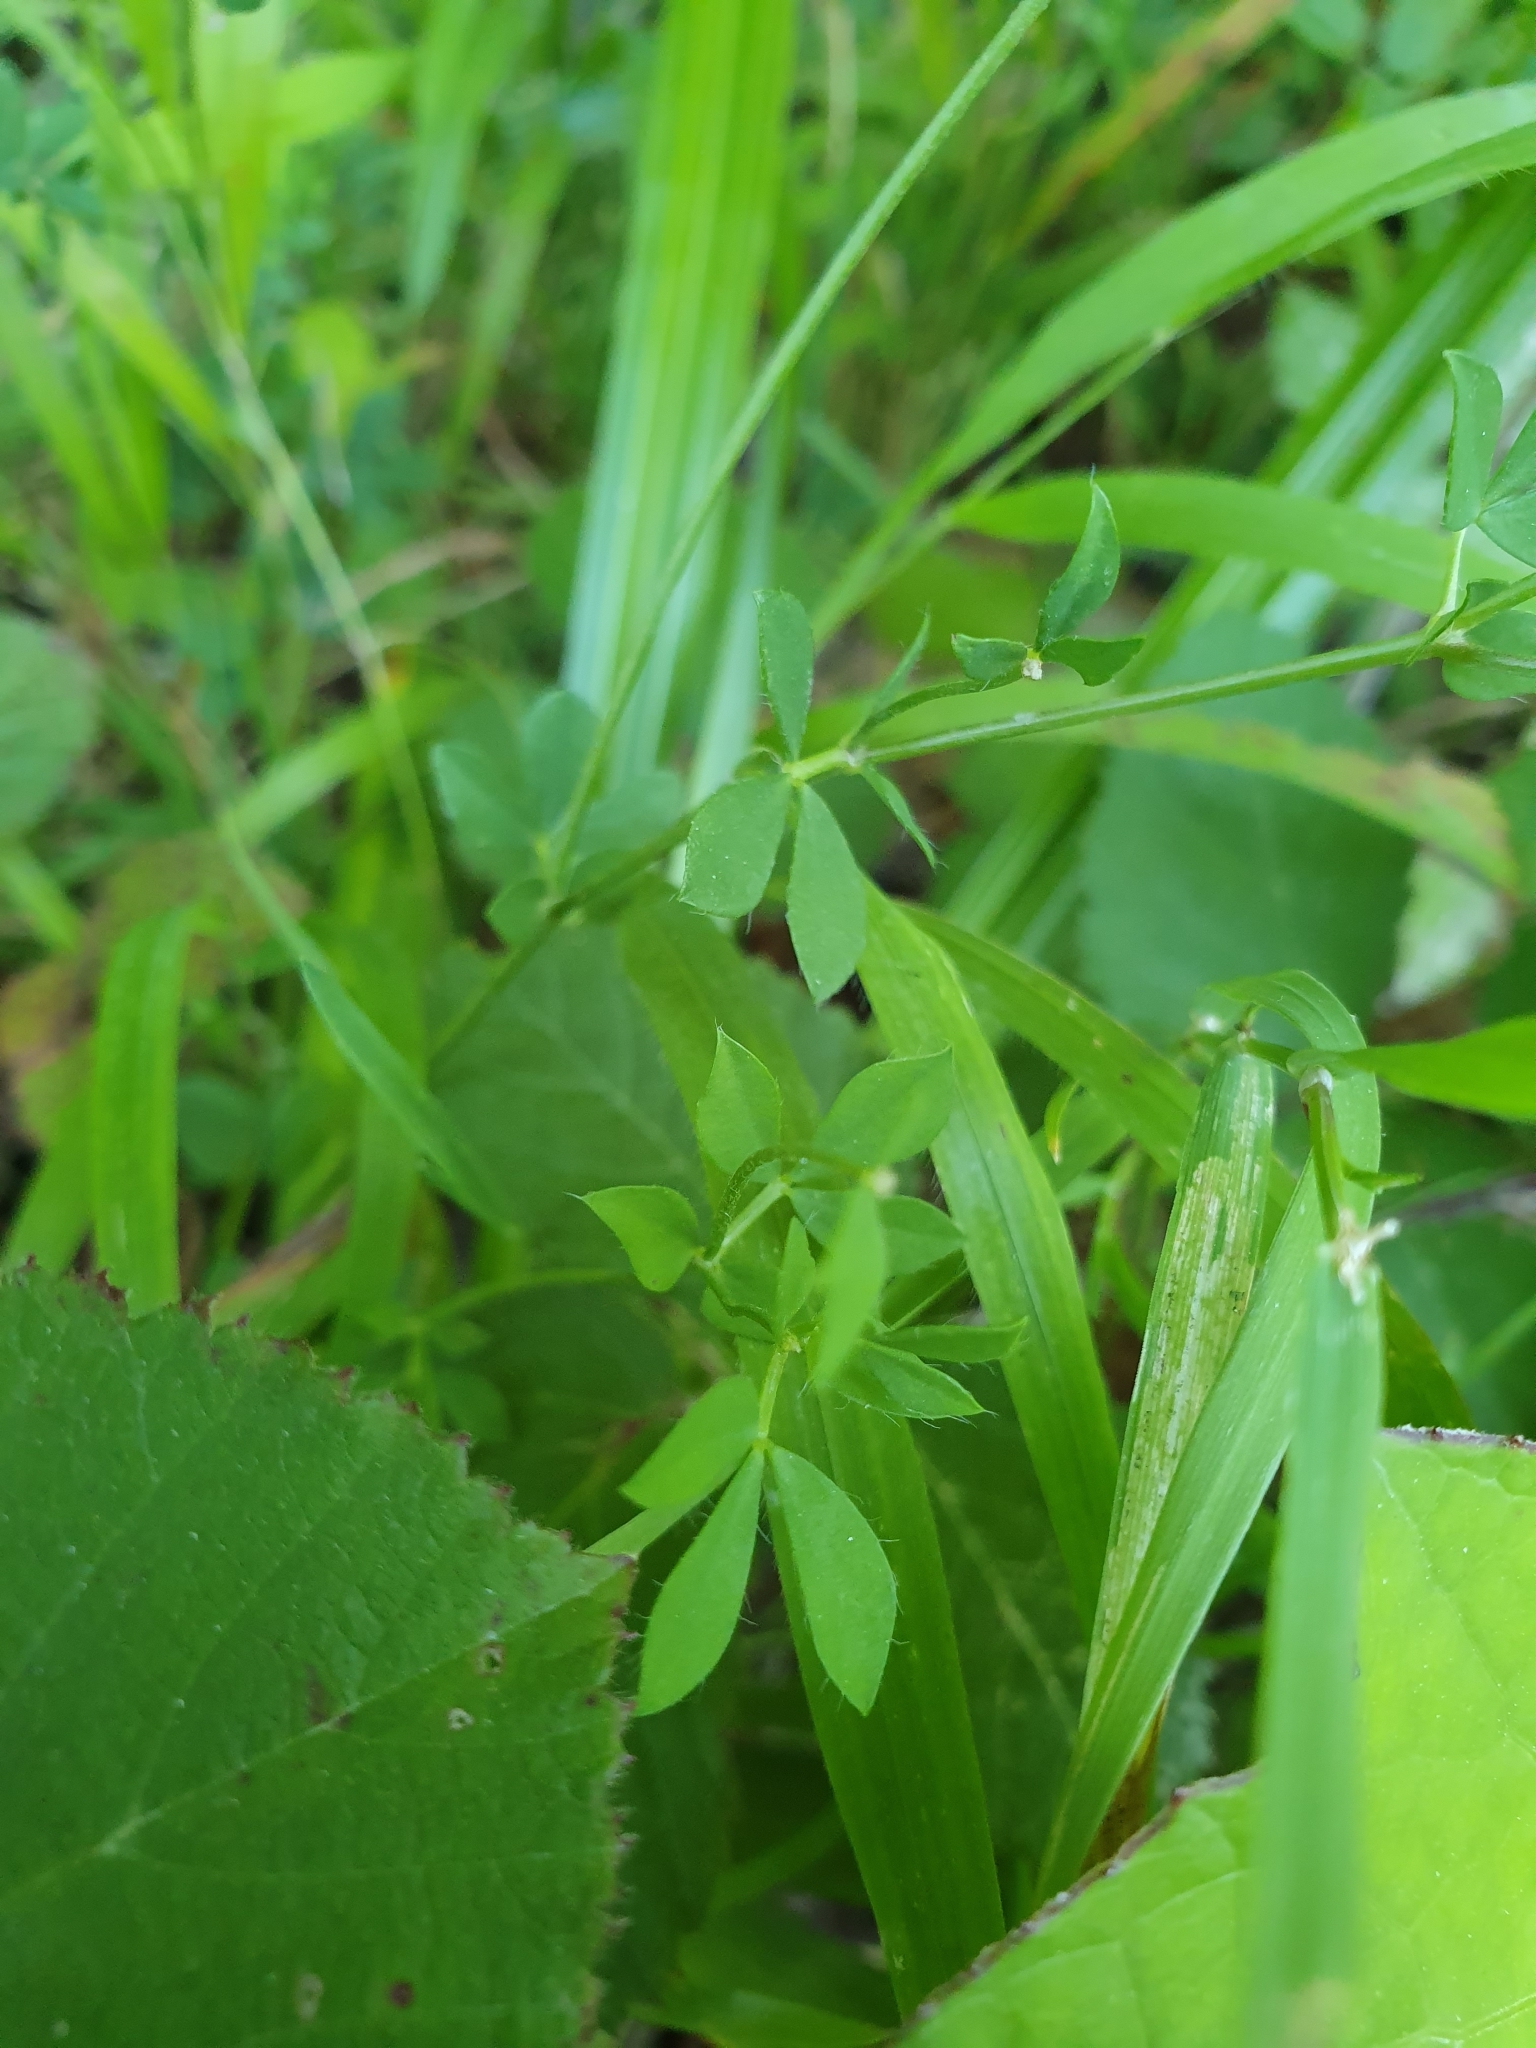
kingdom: Plantae
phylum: Tracheophyta
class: Magnoliopsida
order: Fabales
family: Fabaceae
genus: Lotus
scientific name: Lotus corniculatus
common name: Common bird's-foot-trefoil
